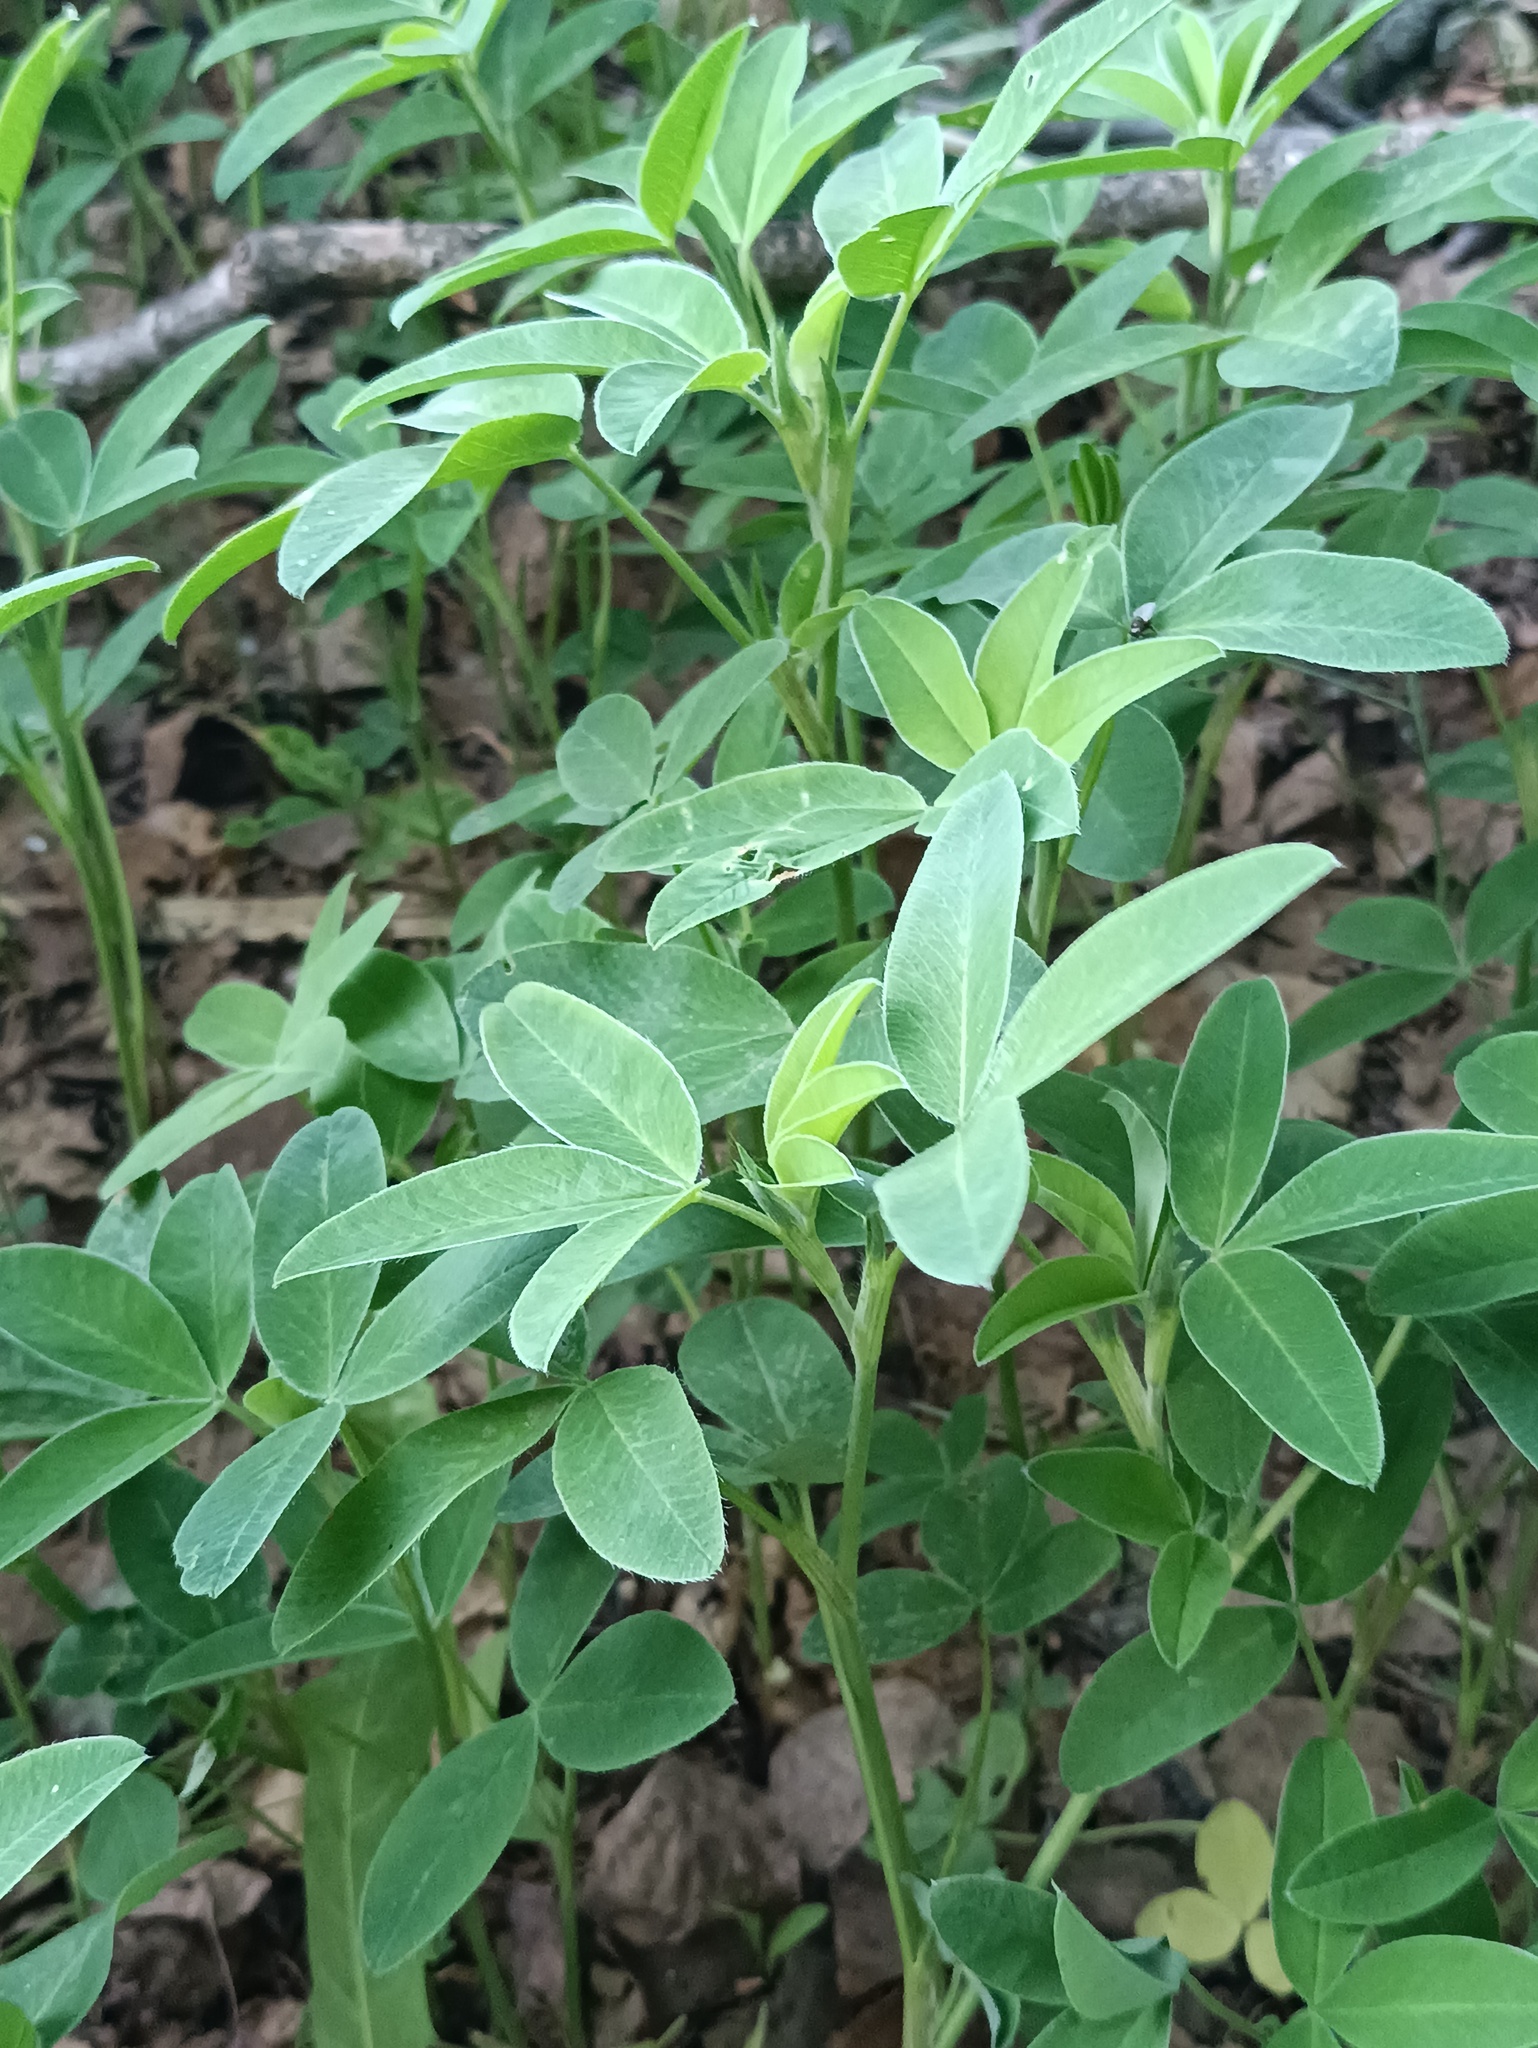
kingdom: Plantae
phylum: Tracheophyta
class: Magnoliopsida
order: Fabales
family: Fabaceae
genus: Trifolium
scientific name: Trifolium medium
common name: Zigzag clover
